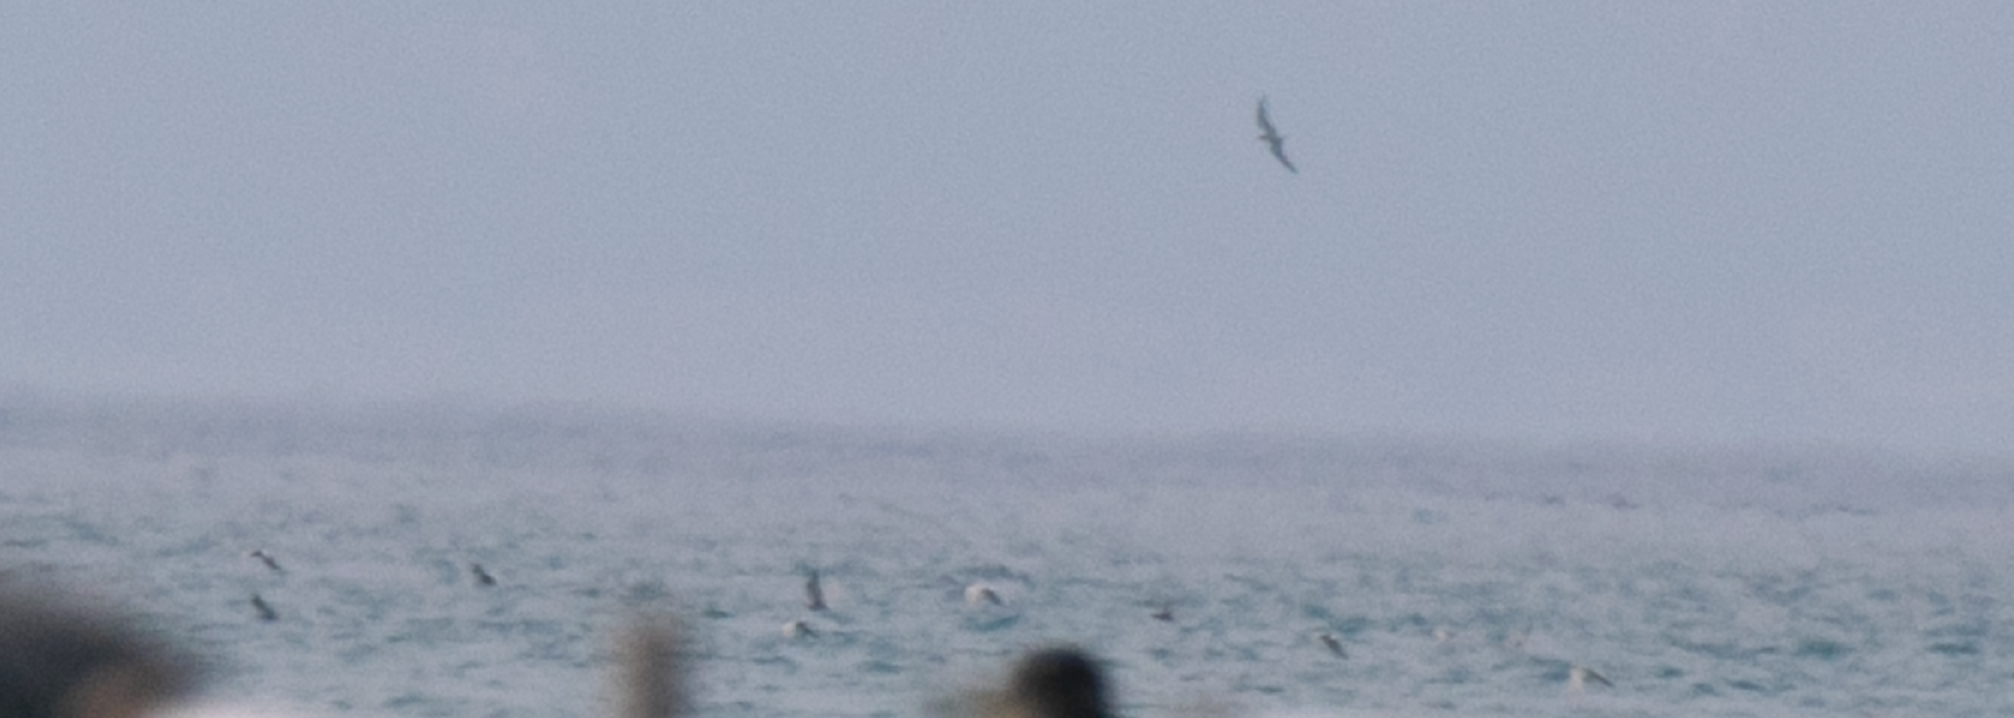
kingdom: Animalia
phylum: Chordata
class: Aves
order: Charadriiformes
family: Laridae
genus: Chlidonias
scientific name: Chlidonias niger
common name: Black tern
